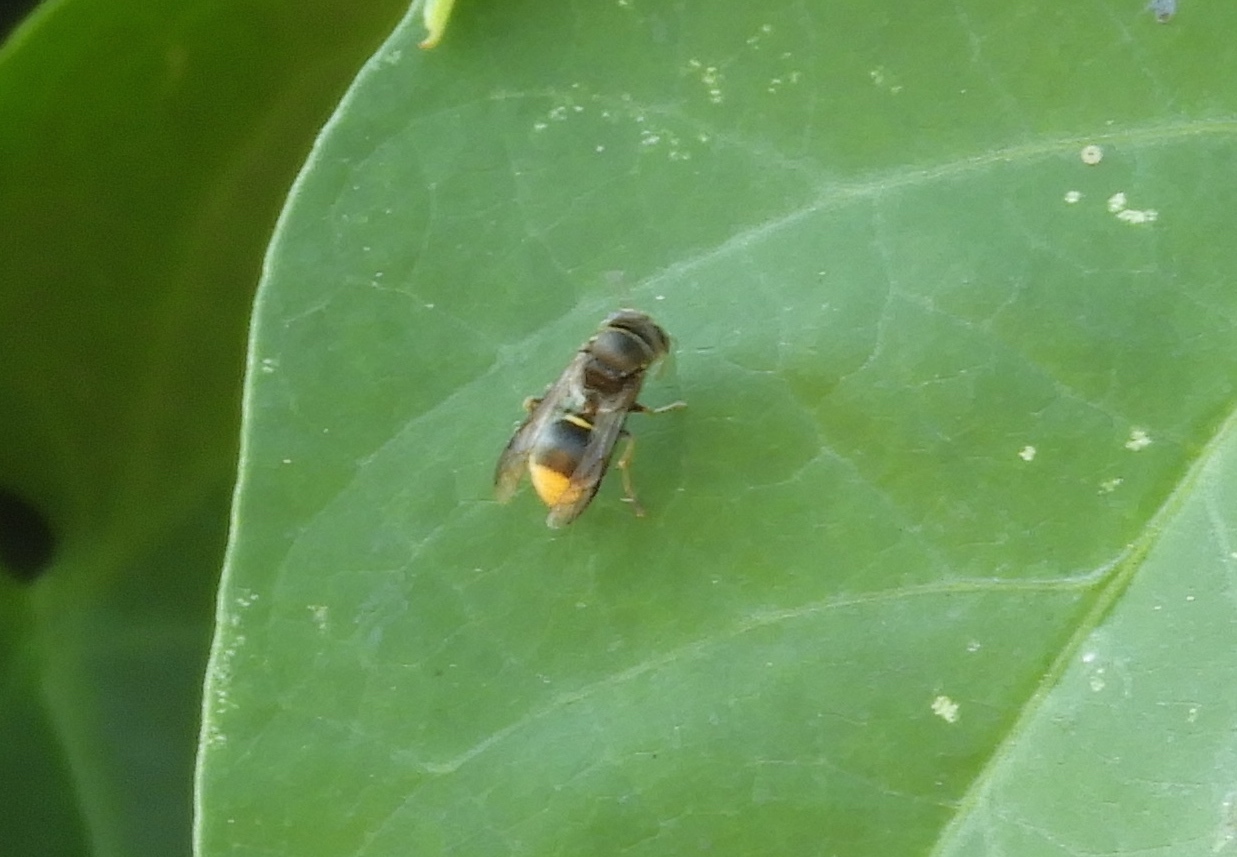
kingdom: Animalia
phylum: Arthropoda
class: Insecta
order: Hymenoptera
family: Vespidae
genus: Brachygastra
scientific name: Brachygastra azteca
